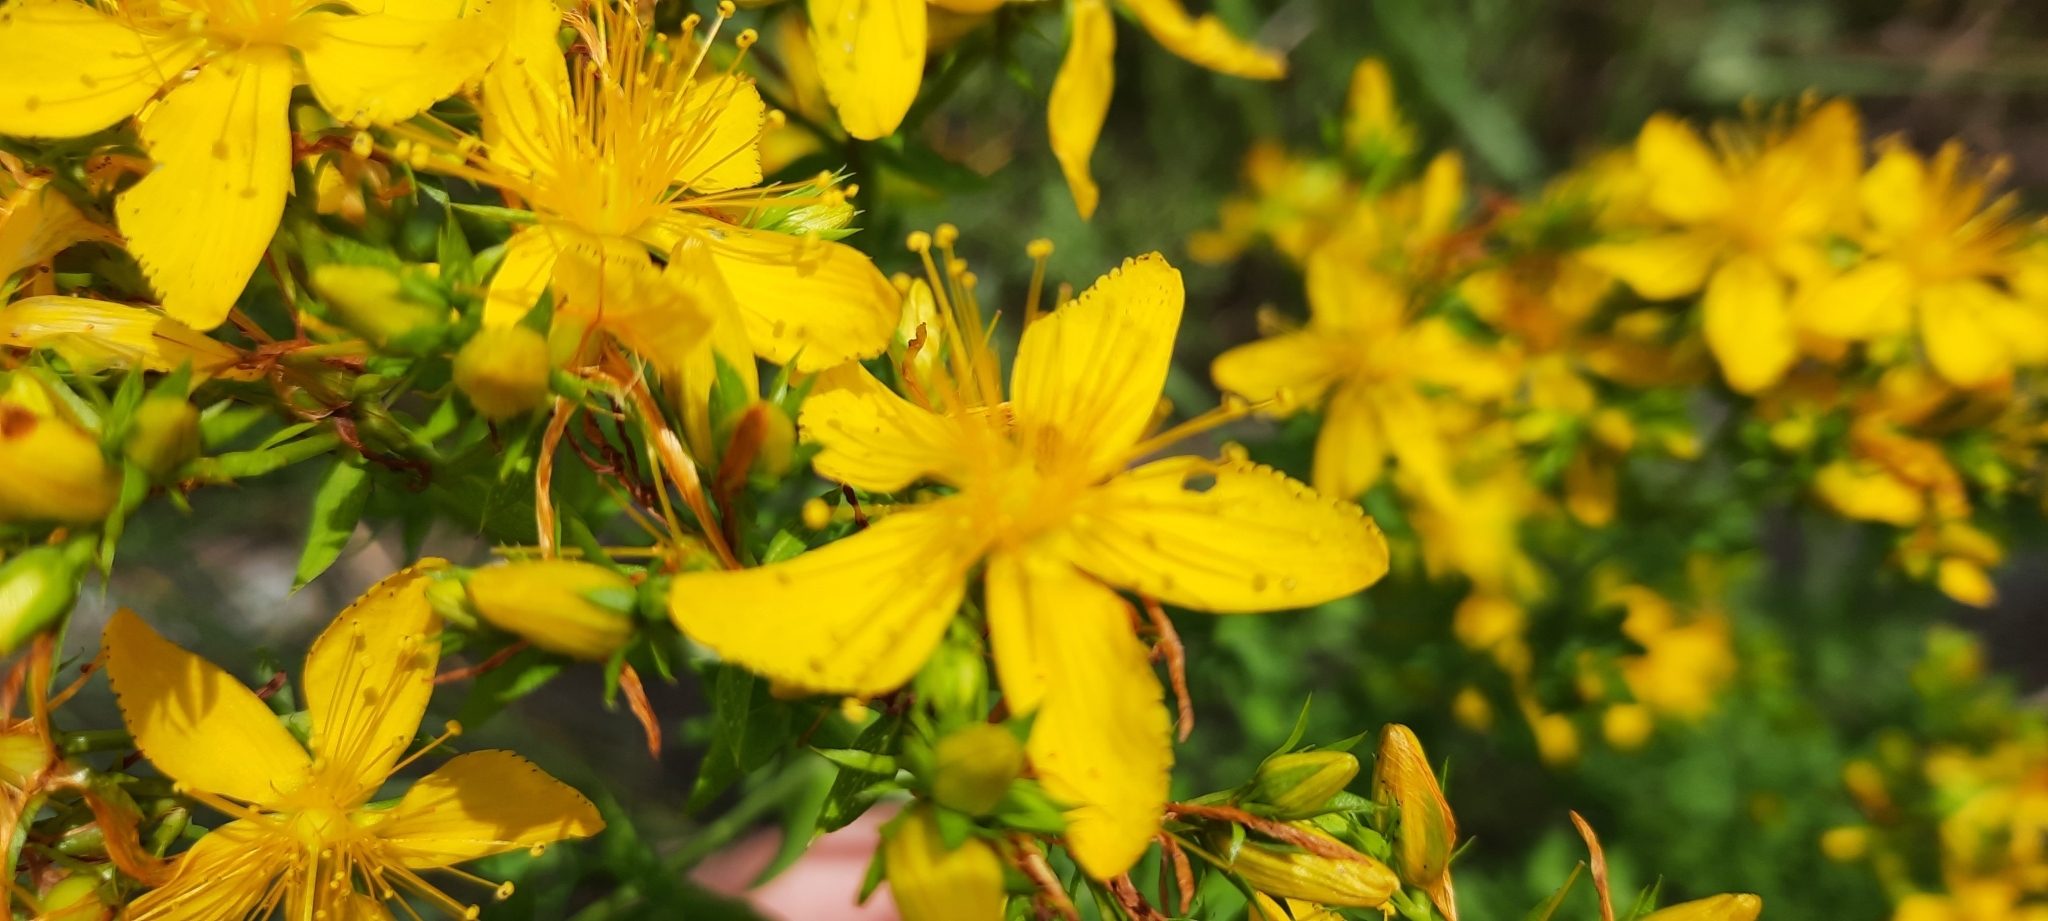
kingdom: Plantae
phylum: Tracheophyta
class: Magnoliopsida
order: Malpighiales
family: Hypericaceae
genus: Hypericum
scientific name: Hypericum perforatum
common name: Common st. johnswort
